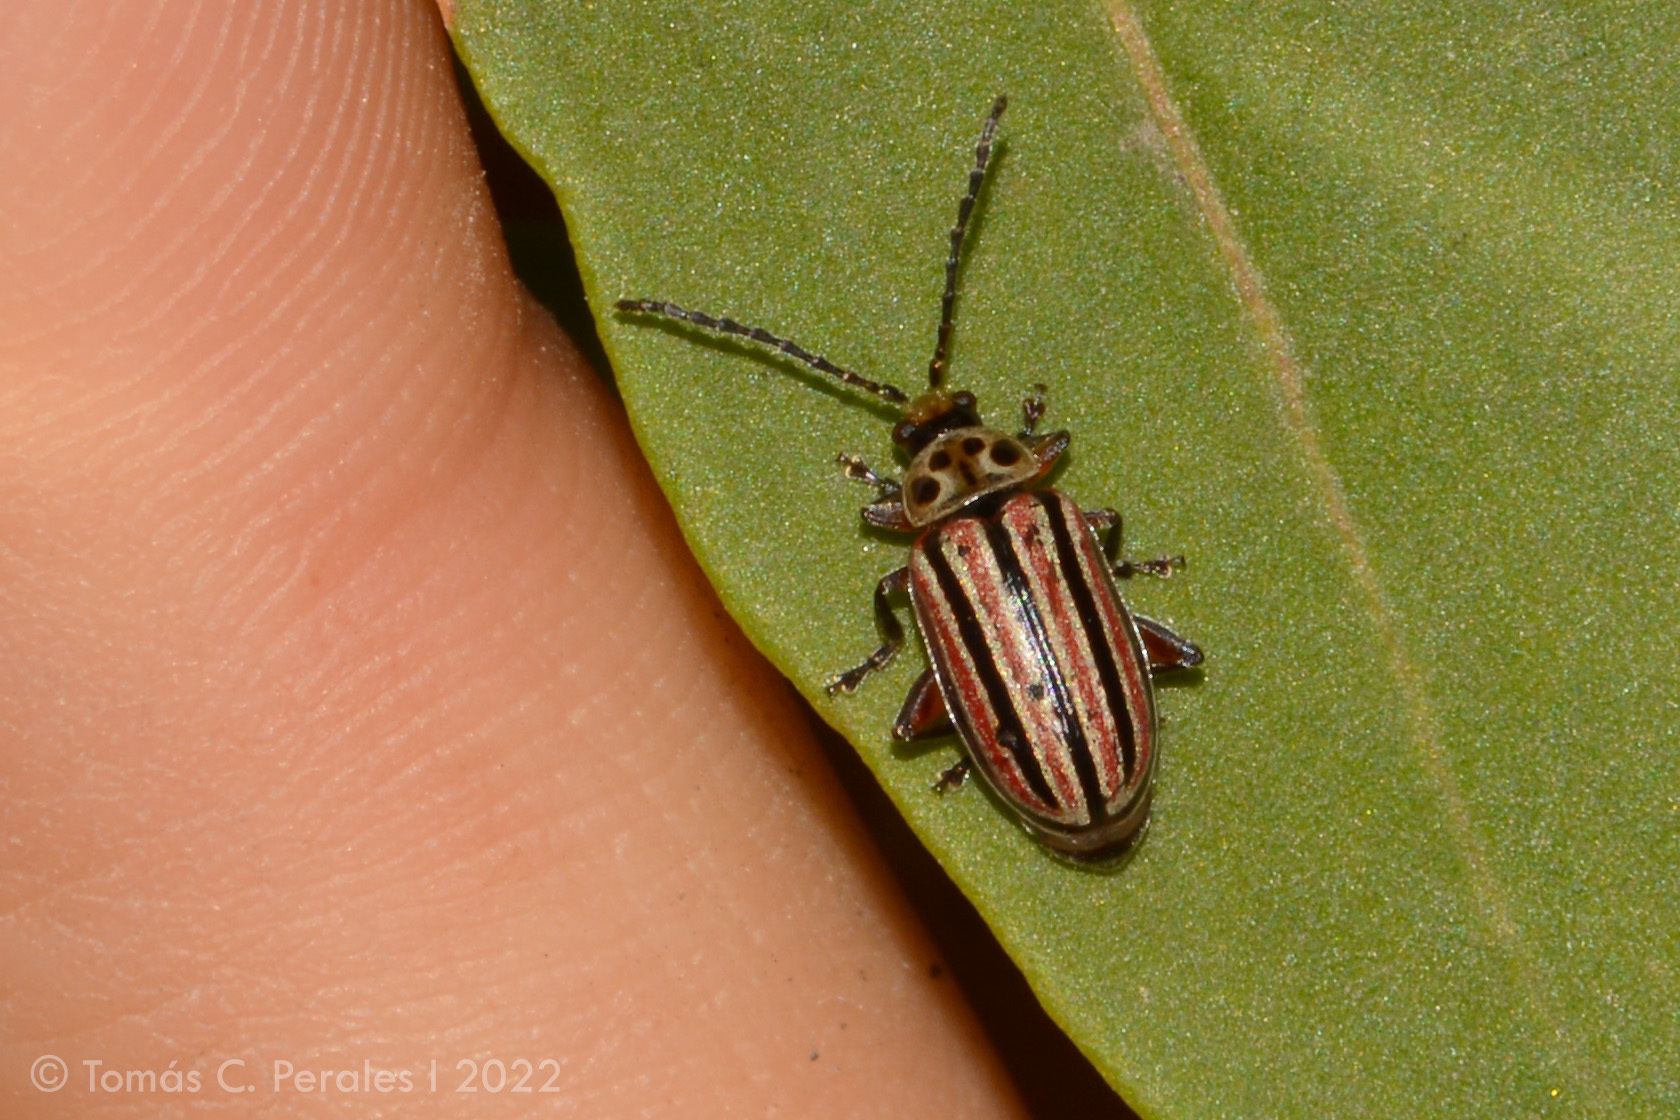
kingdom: Animalia
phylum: Arthropoda
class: Insecta
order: Coleoptera
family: Chrysomelidae
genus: Disonycha
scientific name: Disonycha
